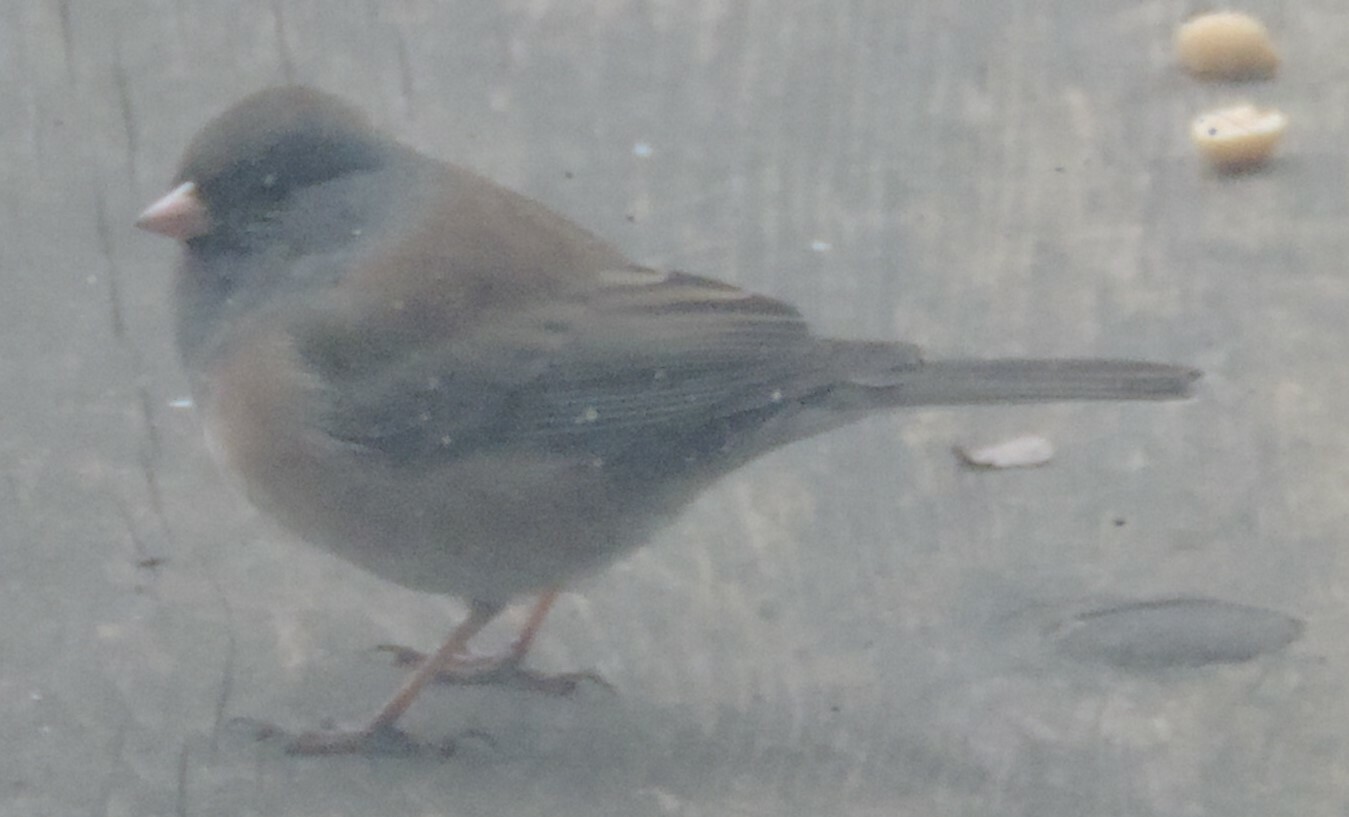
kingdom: Animalia
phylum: Chordata
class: Aves
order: Passeriformes
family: Passerellidae
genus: Junco
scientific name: Junco hyemalis
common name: Dark-eyed junco
